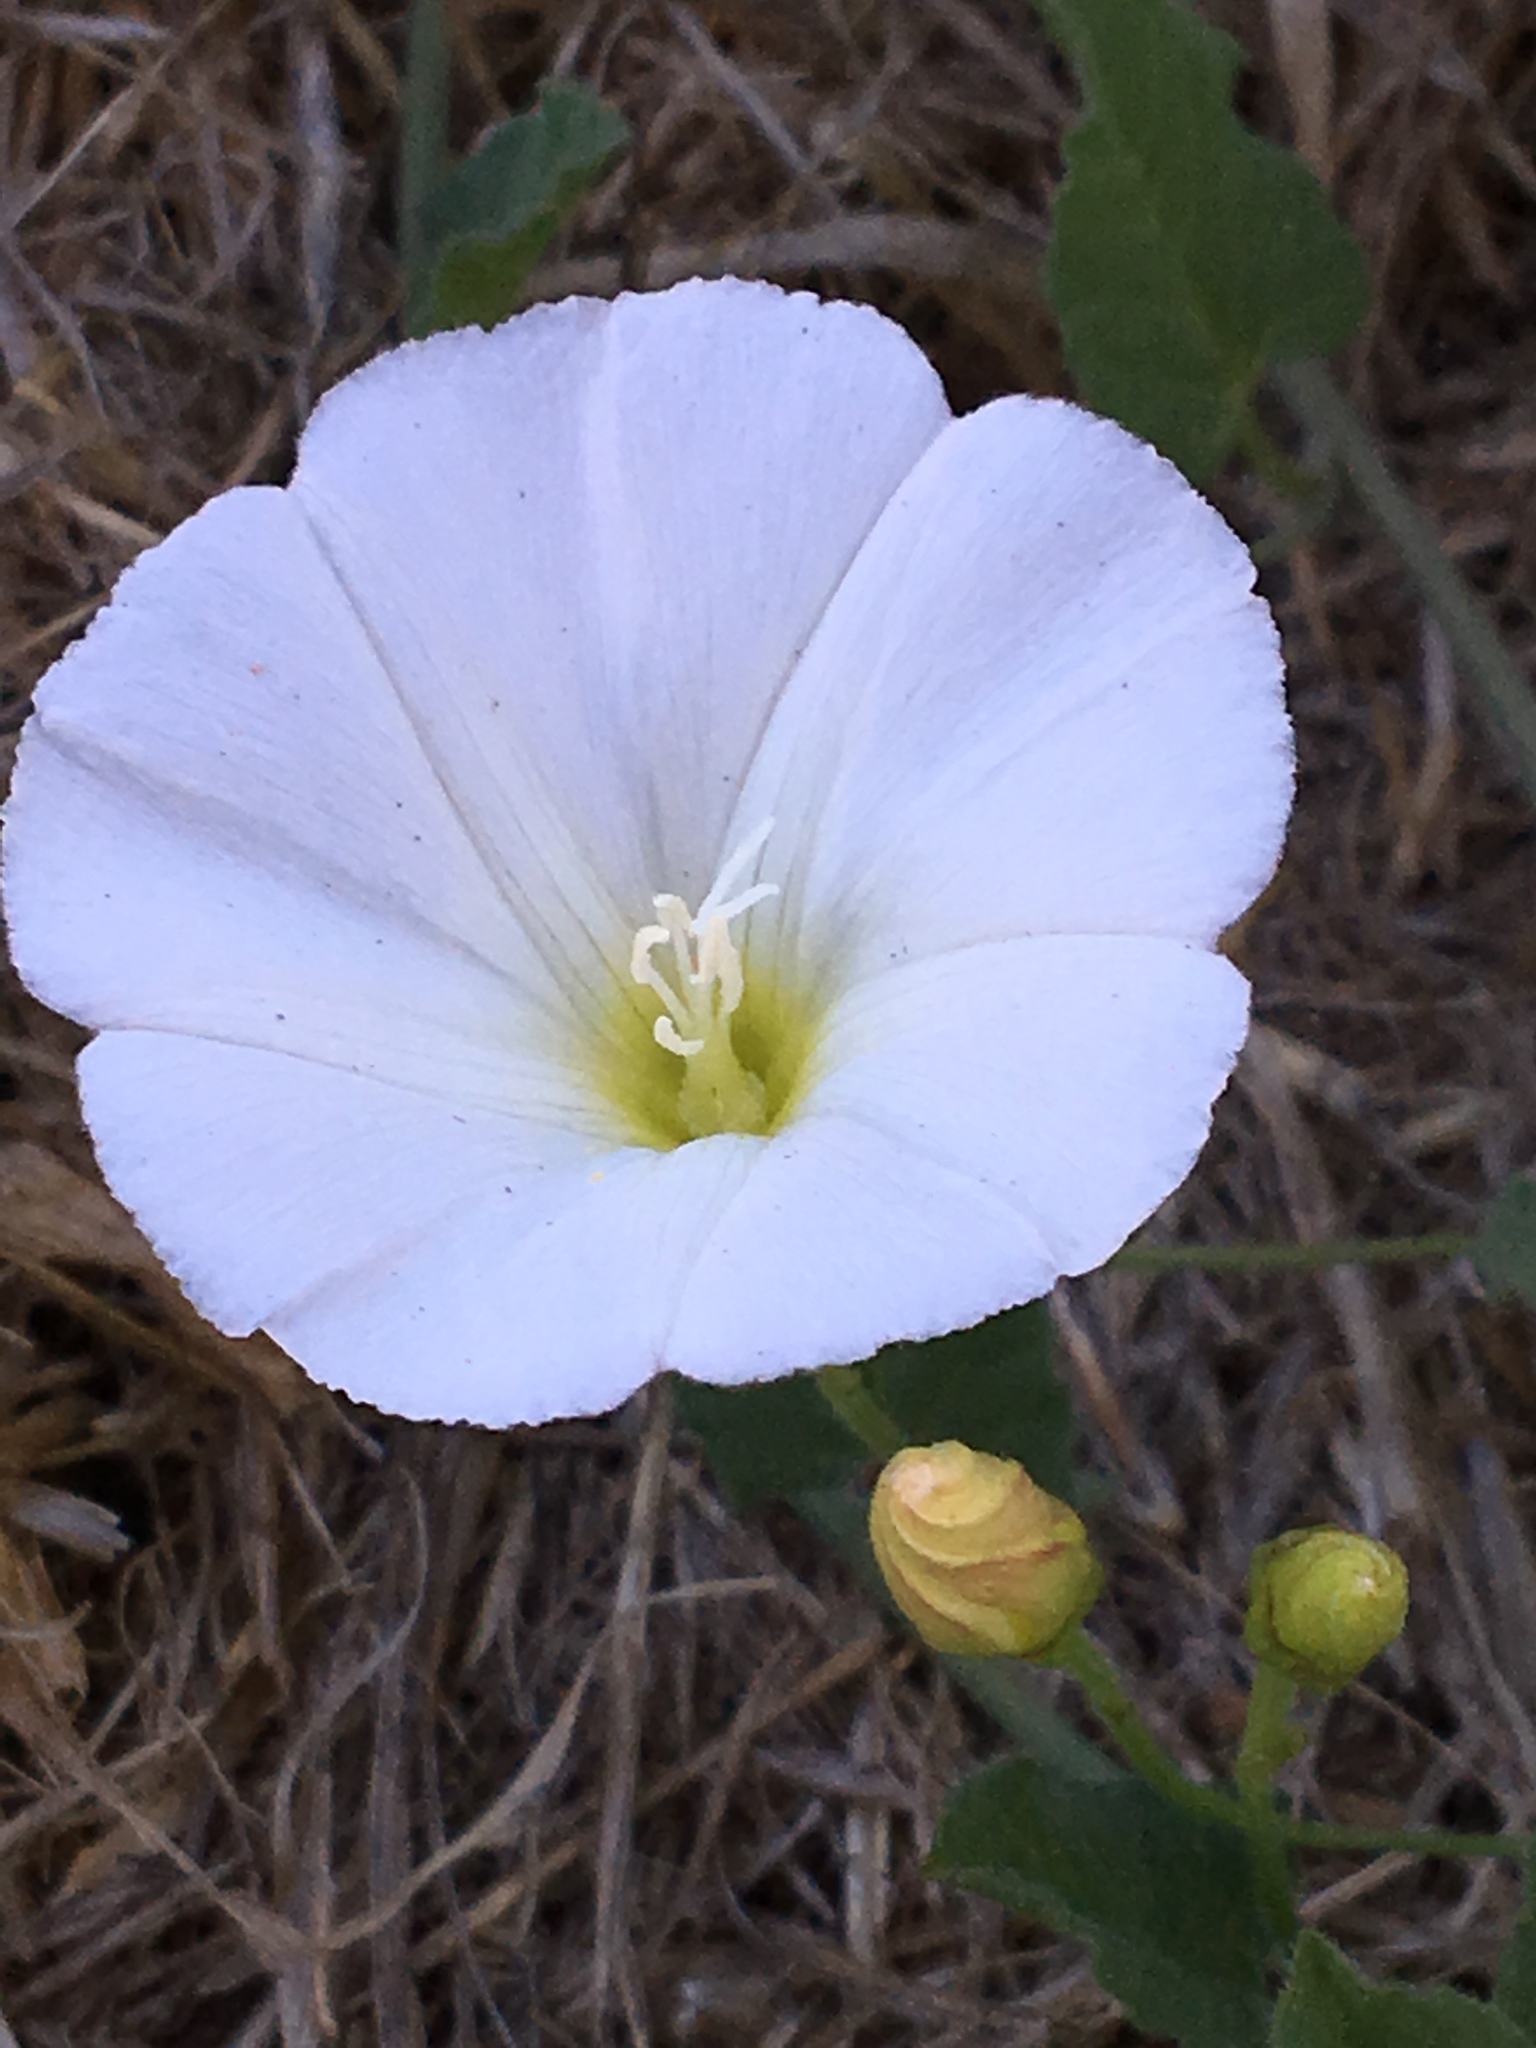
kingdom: Plantae
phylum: Tracheophyta
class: Magnoliopsida
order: Solanales
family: Convolvulaceae
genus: Convolvulus
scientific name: Convolvulus arvensis
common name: Field bindweed
